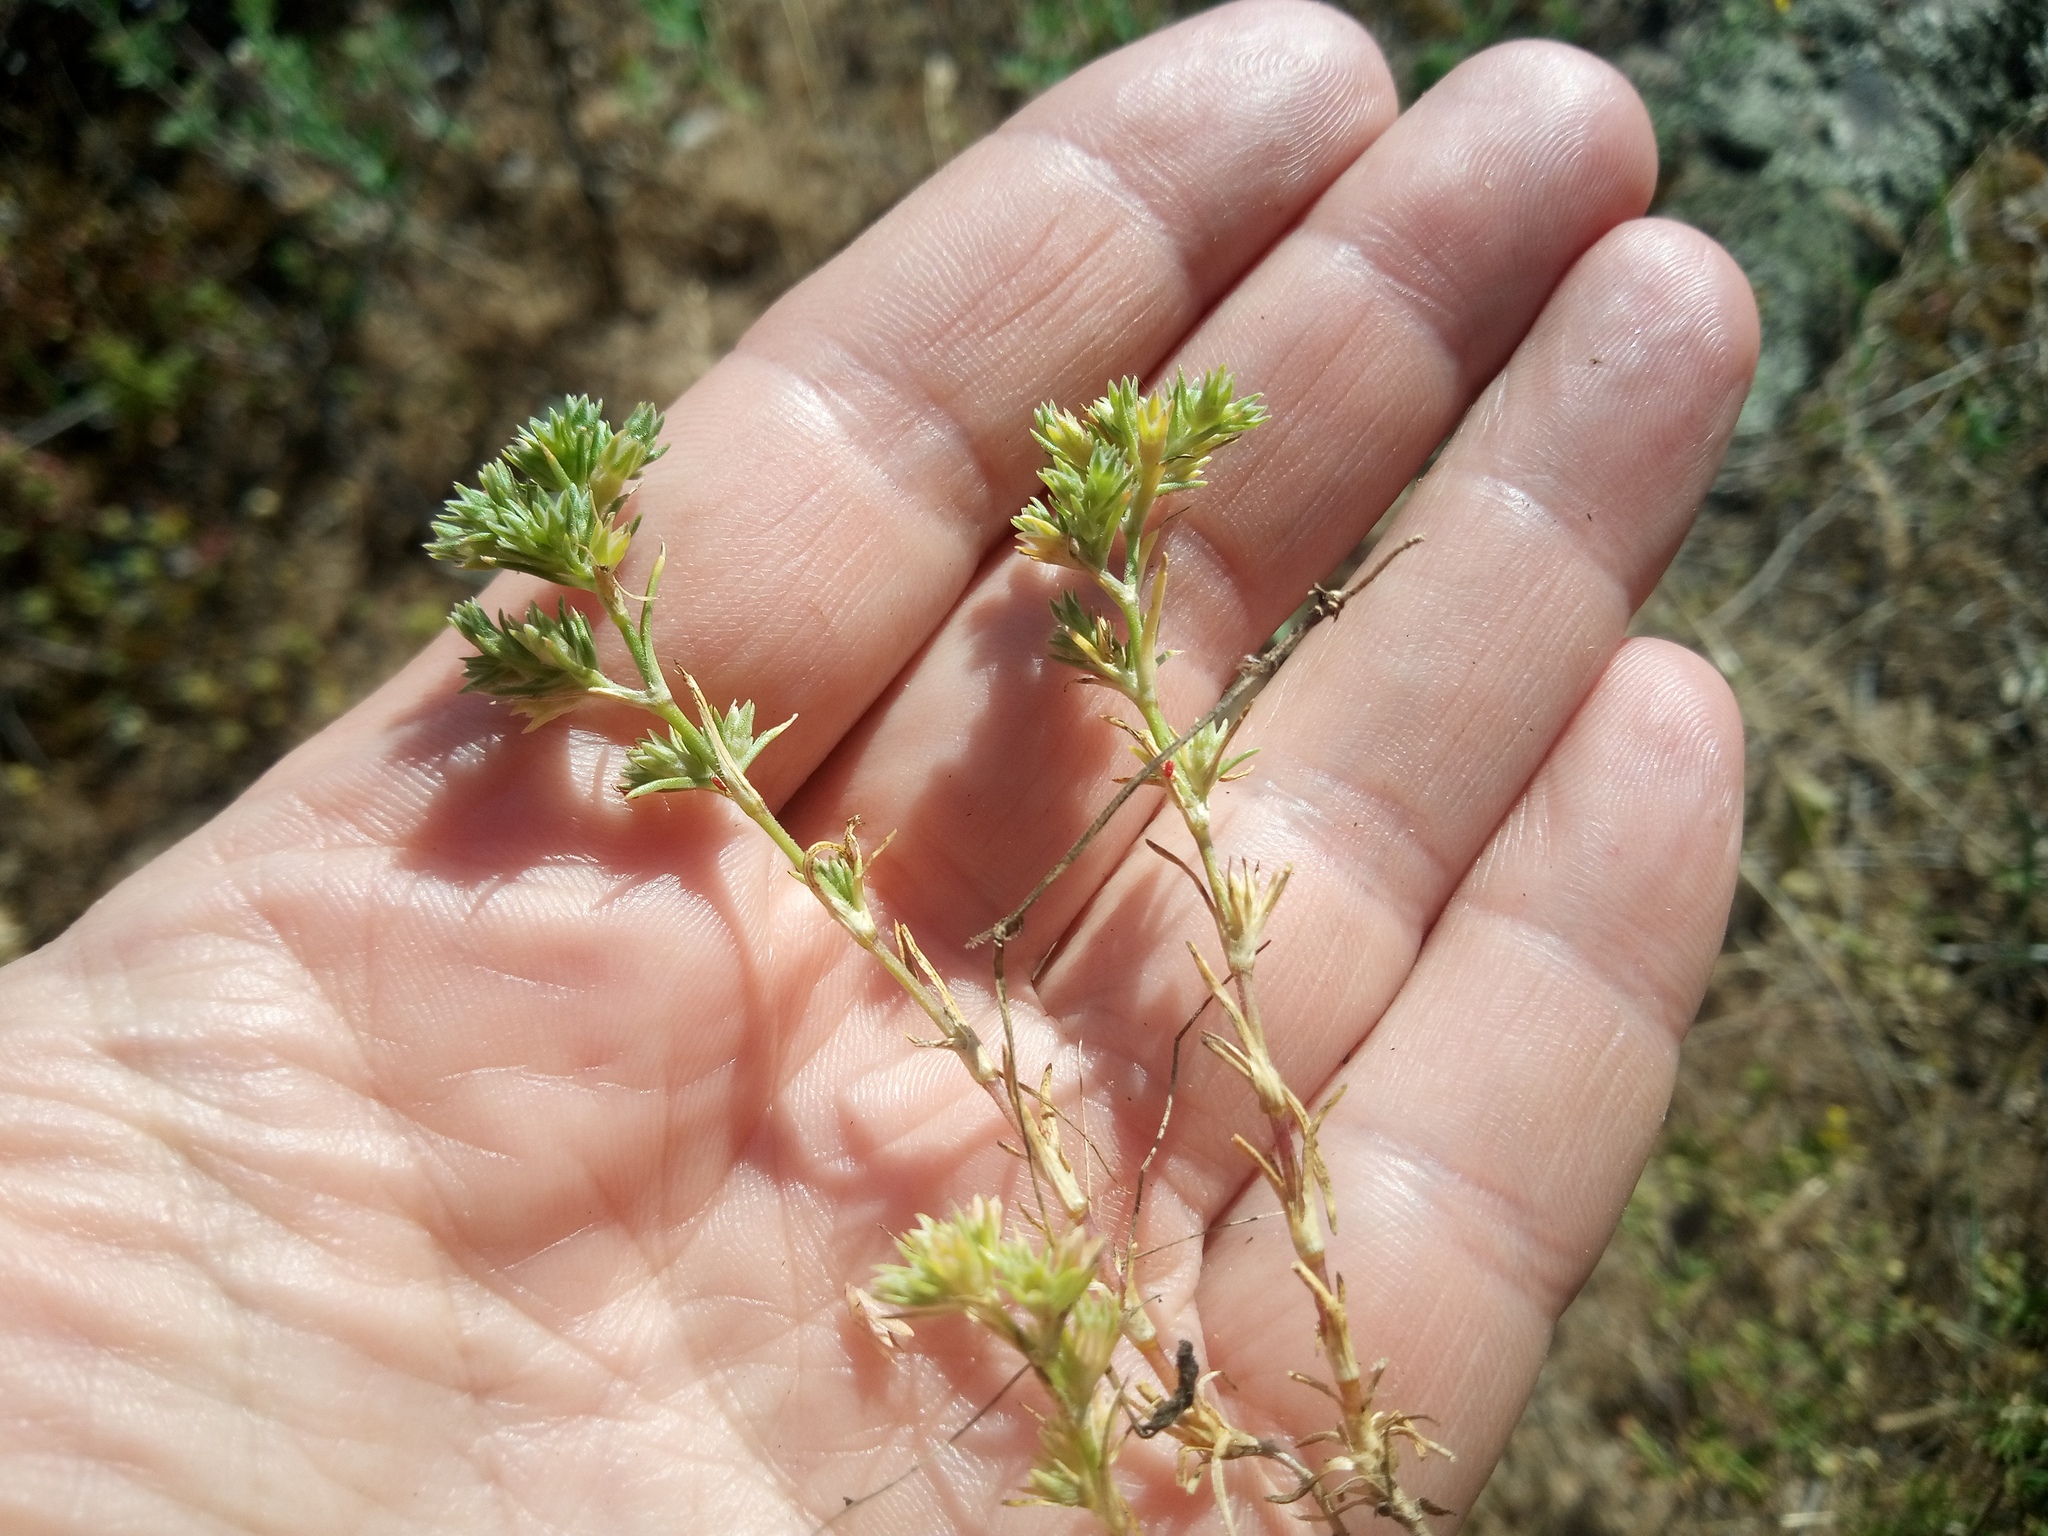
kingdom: Plantae
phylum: Tracheophyta
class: Magnoliopsida
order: Caryophyllales
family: Caryophyllaceae
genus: Scleranthus
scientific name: Scleranthus annuus
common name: Annual knawel
